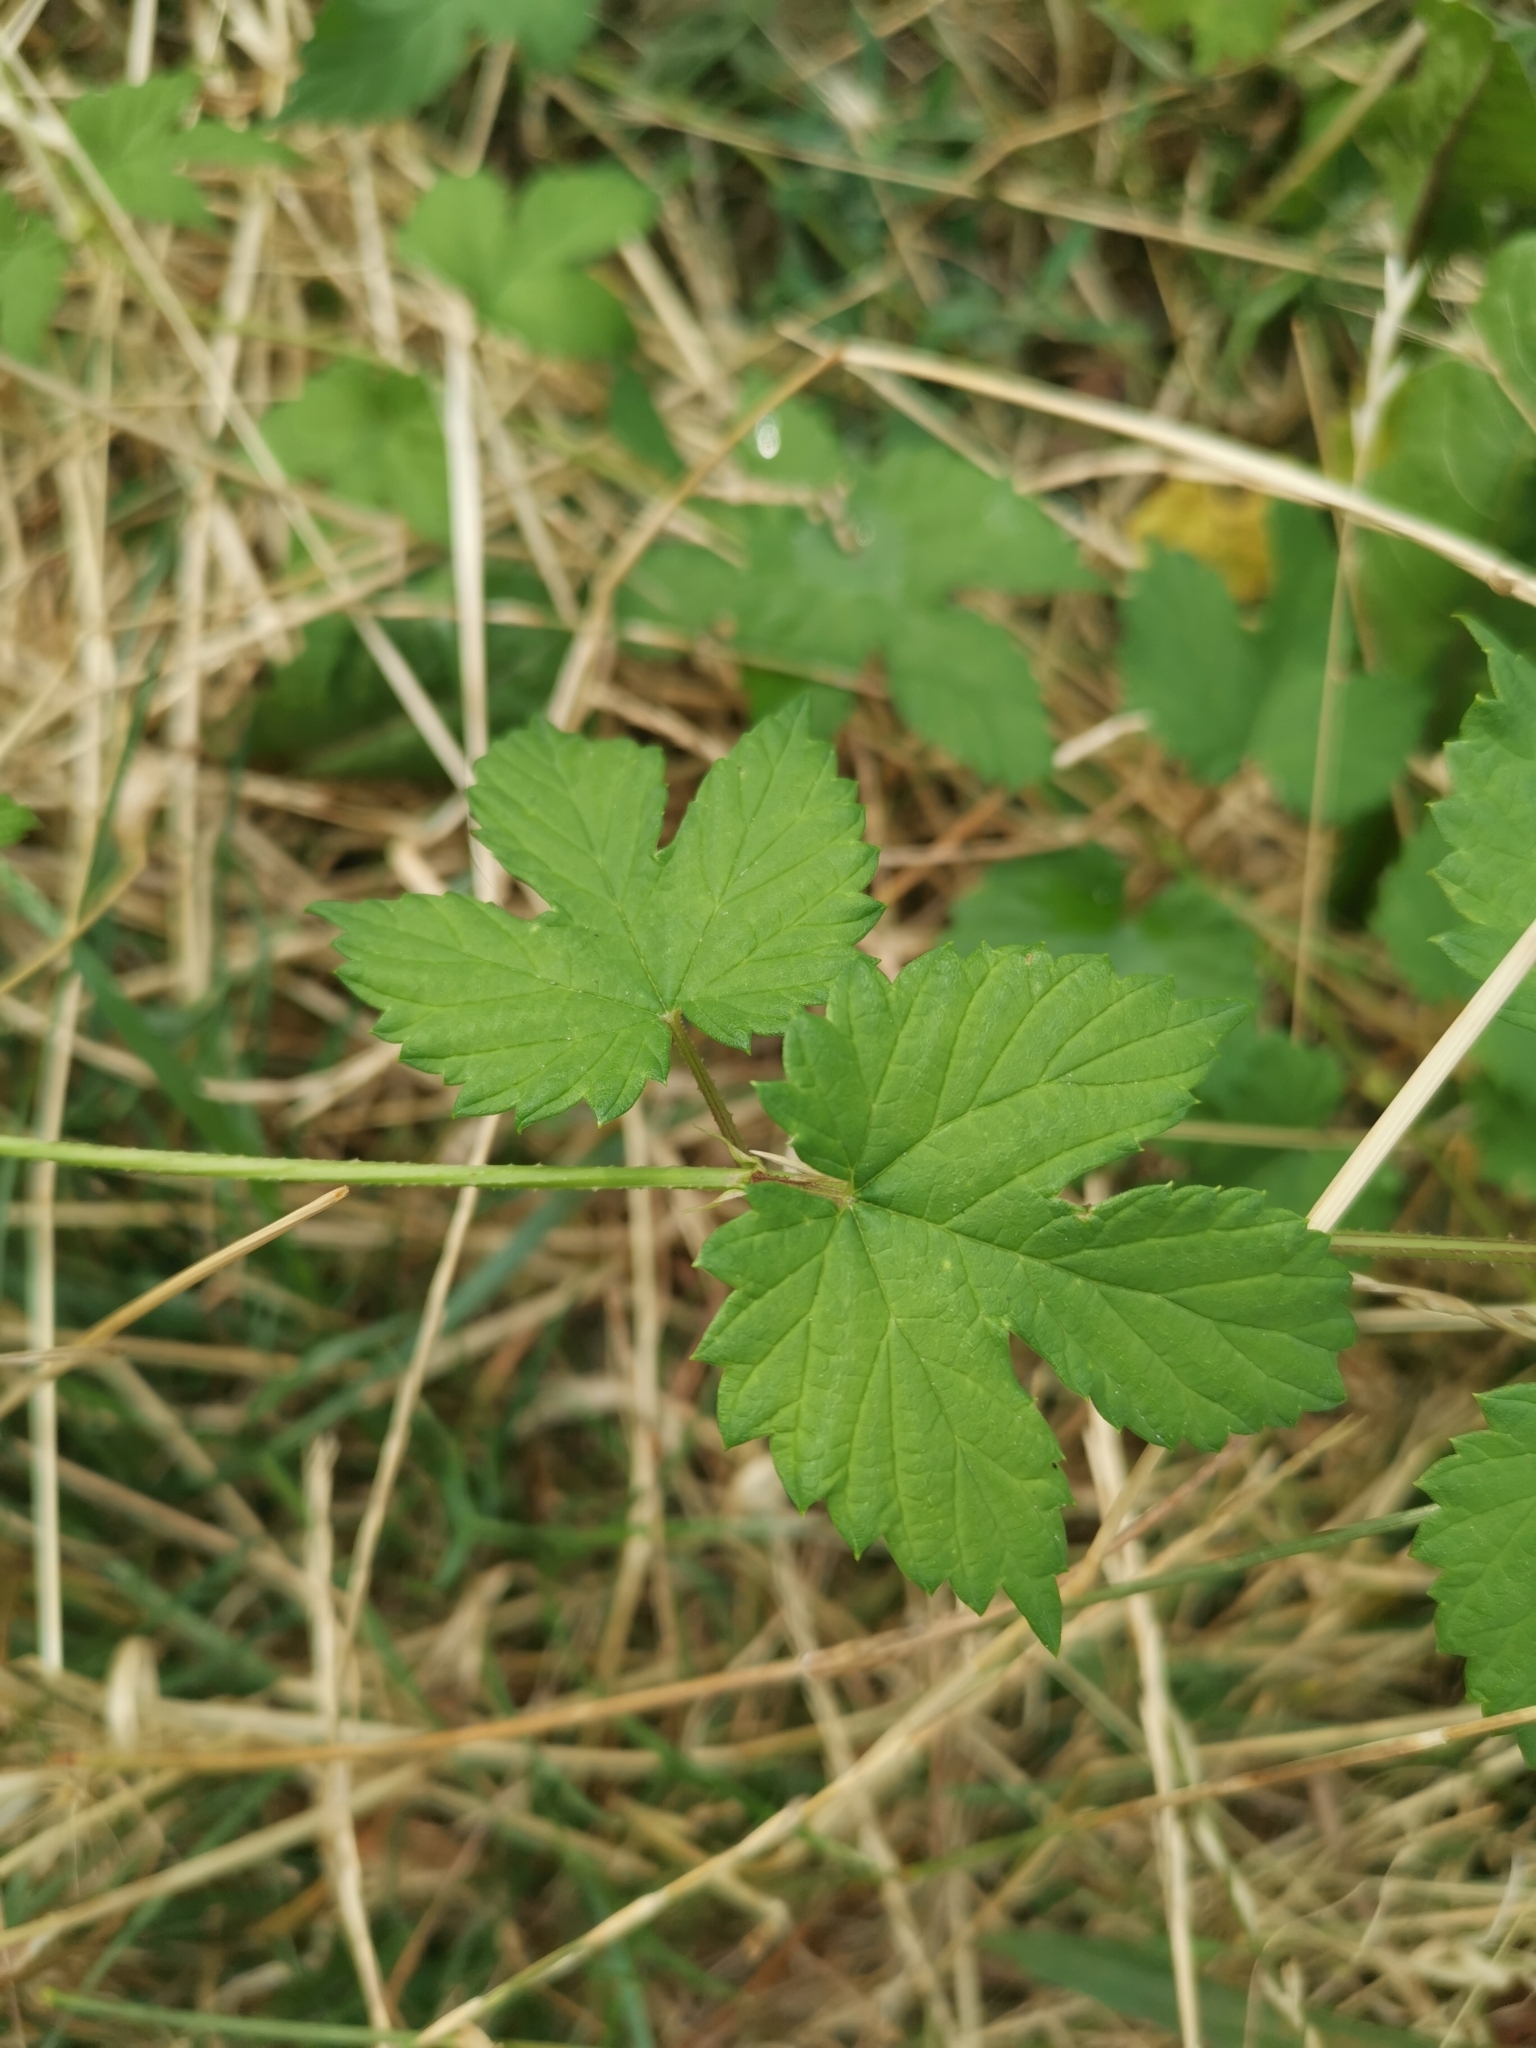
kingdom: Plantae
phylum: Tracheophyta
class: Magnoliopsida
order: Rosales
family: Cannabaceae
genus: Humulus
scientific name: Humulus lupulus
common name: Hop
